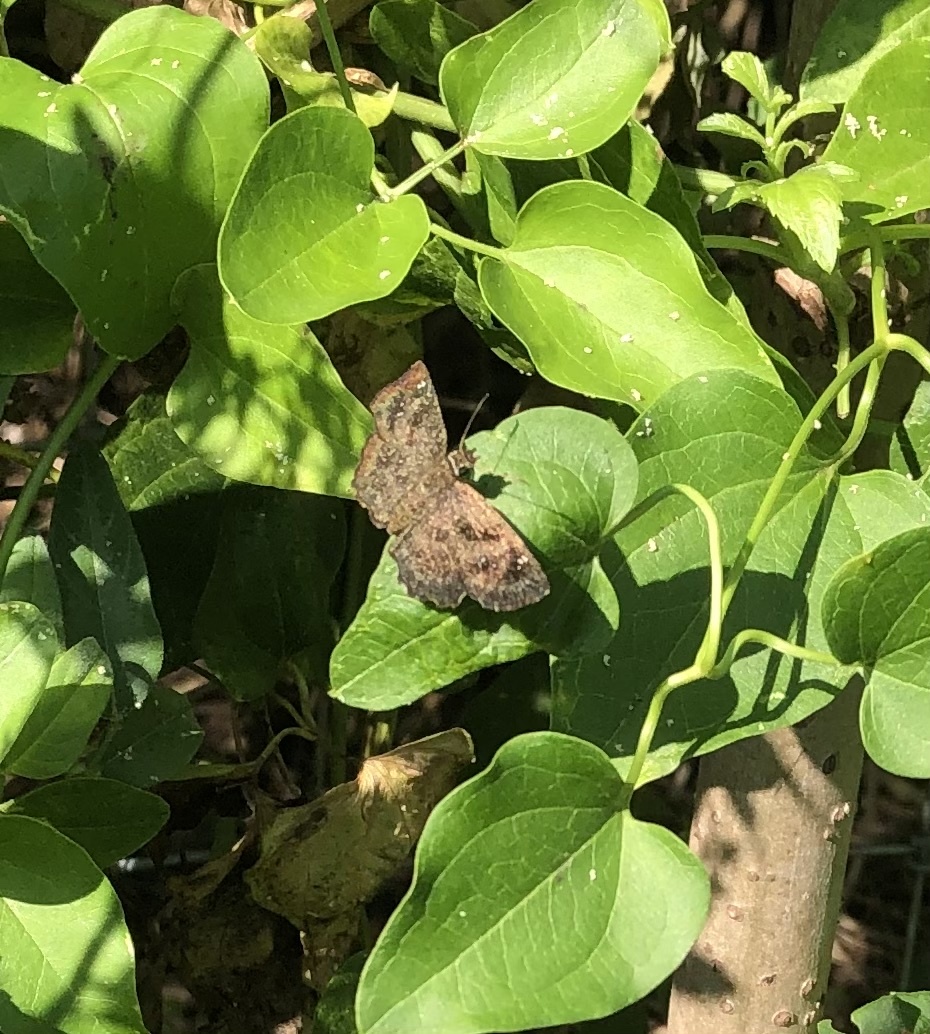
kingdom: Animalia
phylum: Arthropoda
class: Insecta
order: Lepidoptera
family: Hesperiidae
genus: Staphylus
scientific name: Staphylus mazans
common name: Mazans scallopwing
